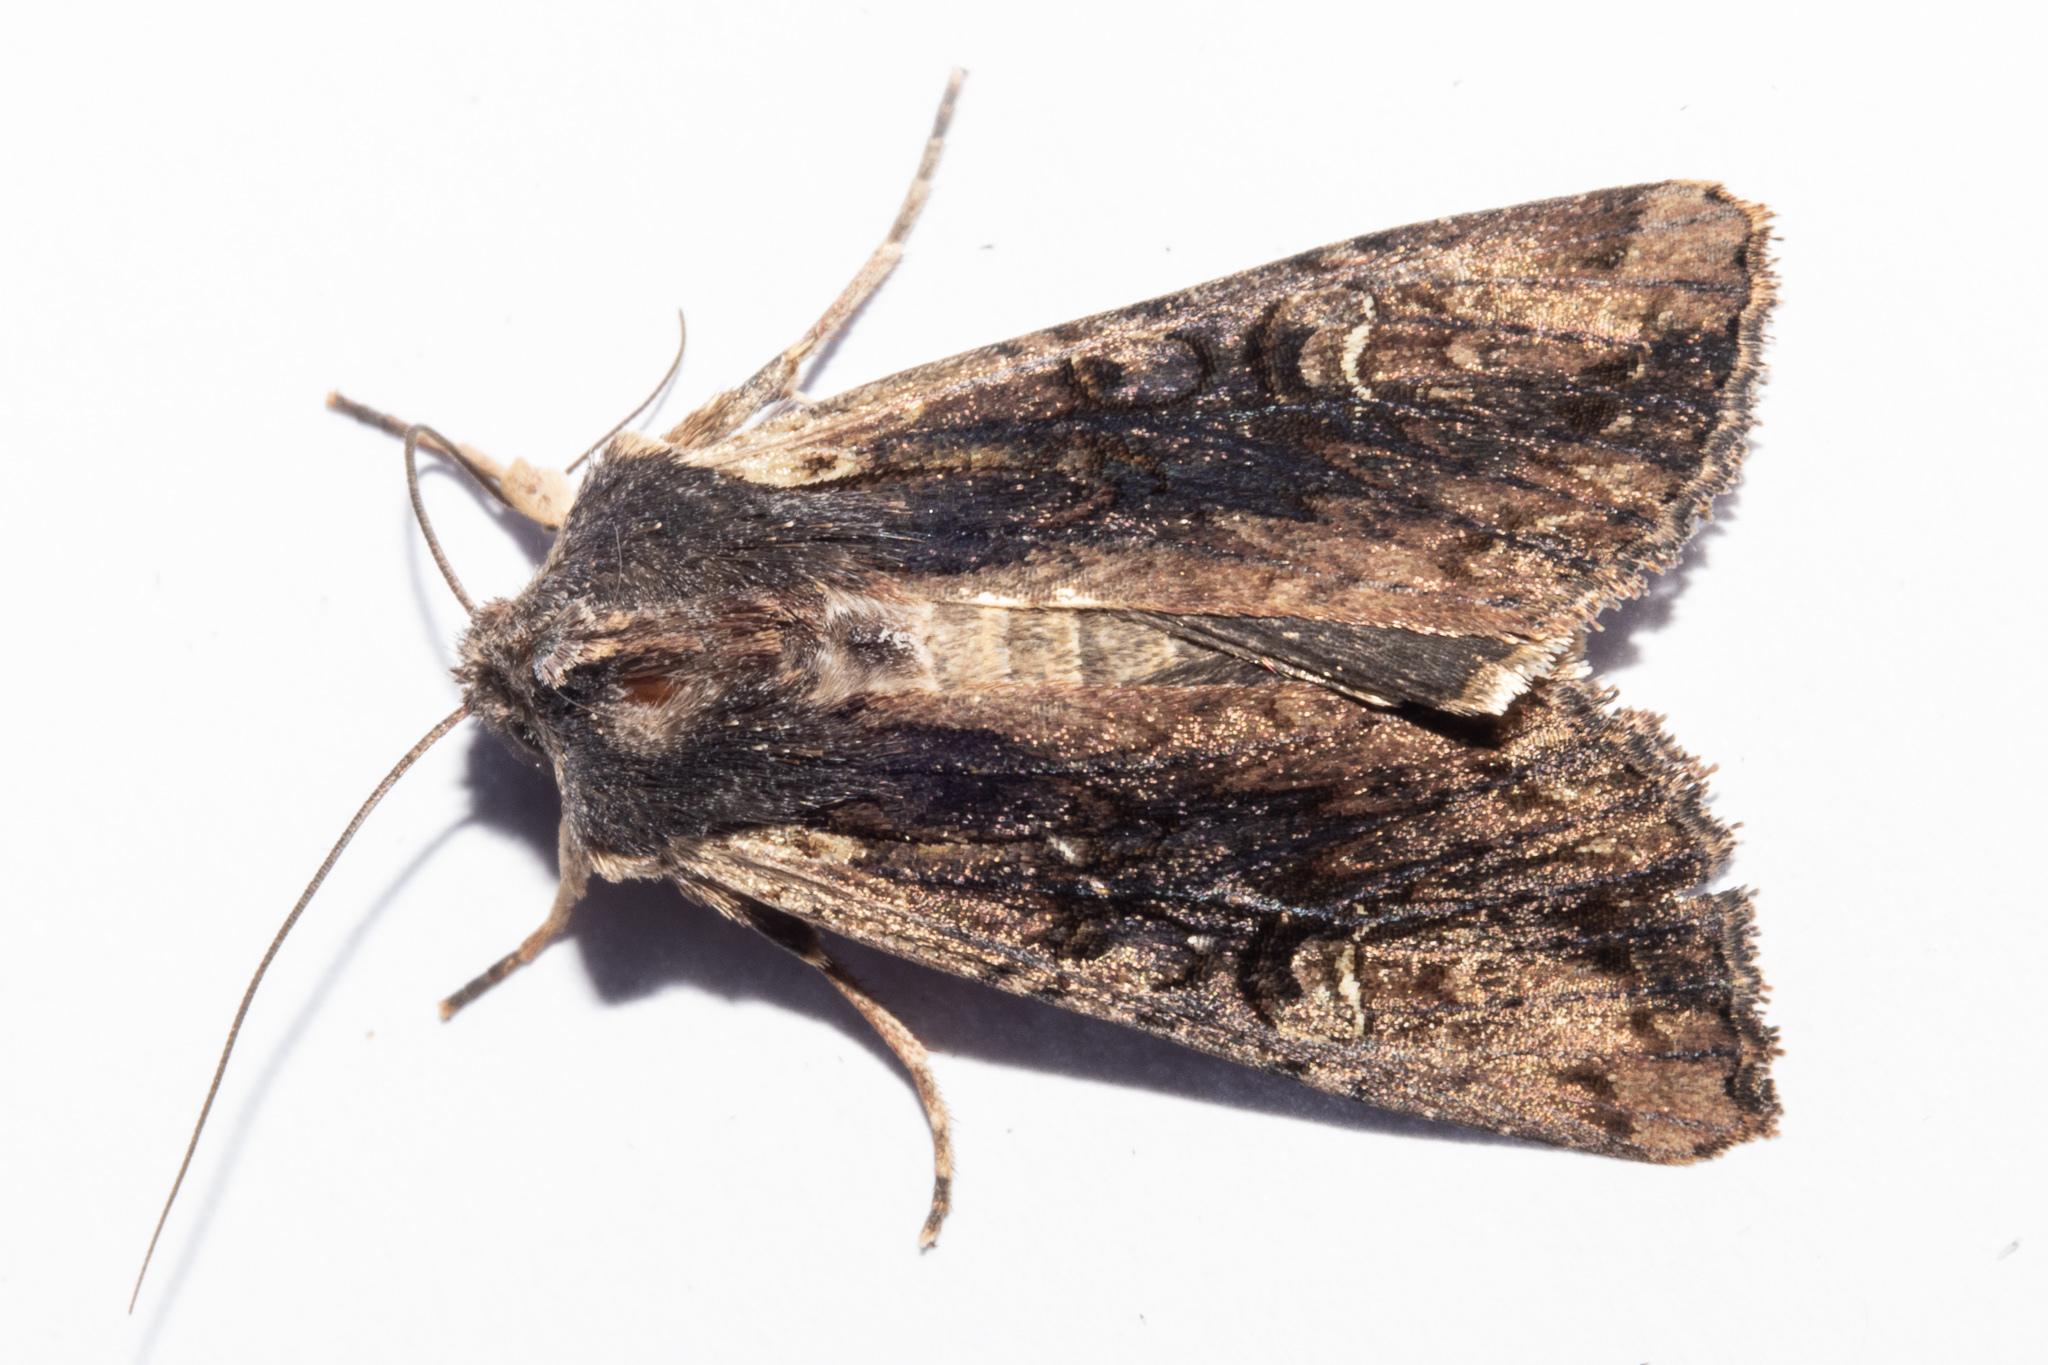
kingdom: Animalia
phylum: Arthropoda
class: Insecta
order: Lepidoptera
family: Noctuidae
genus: Ichneutica
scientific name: Ichneutica omoplaca
